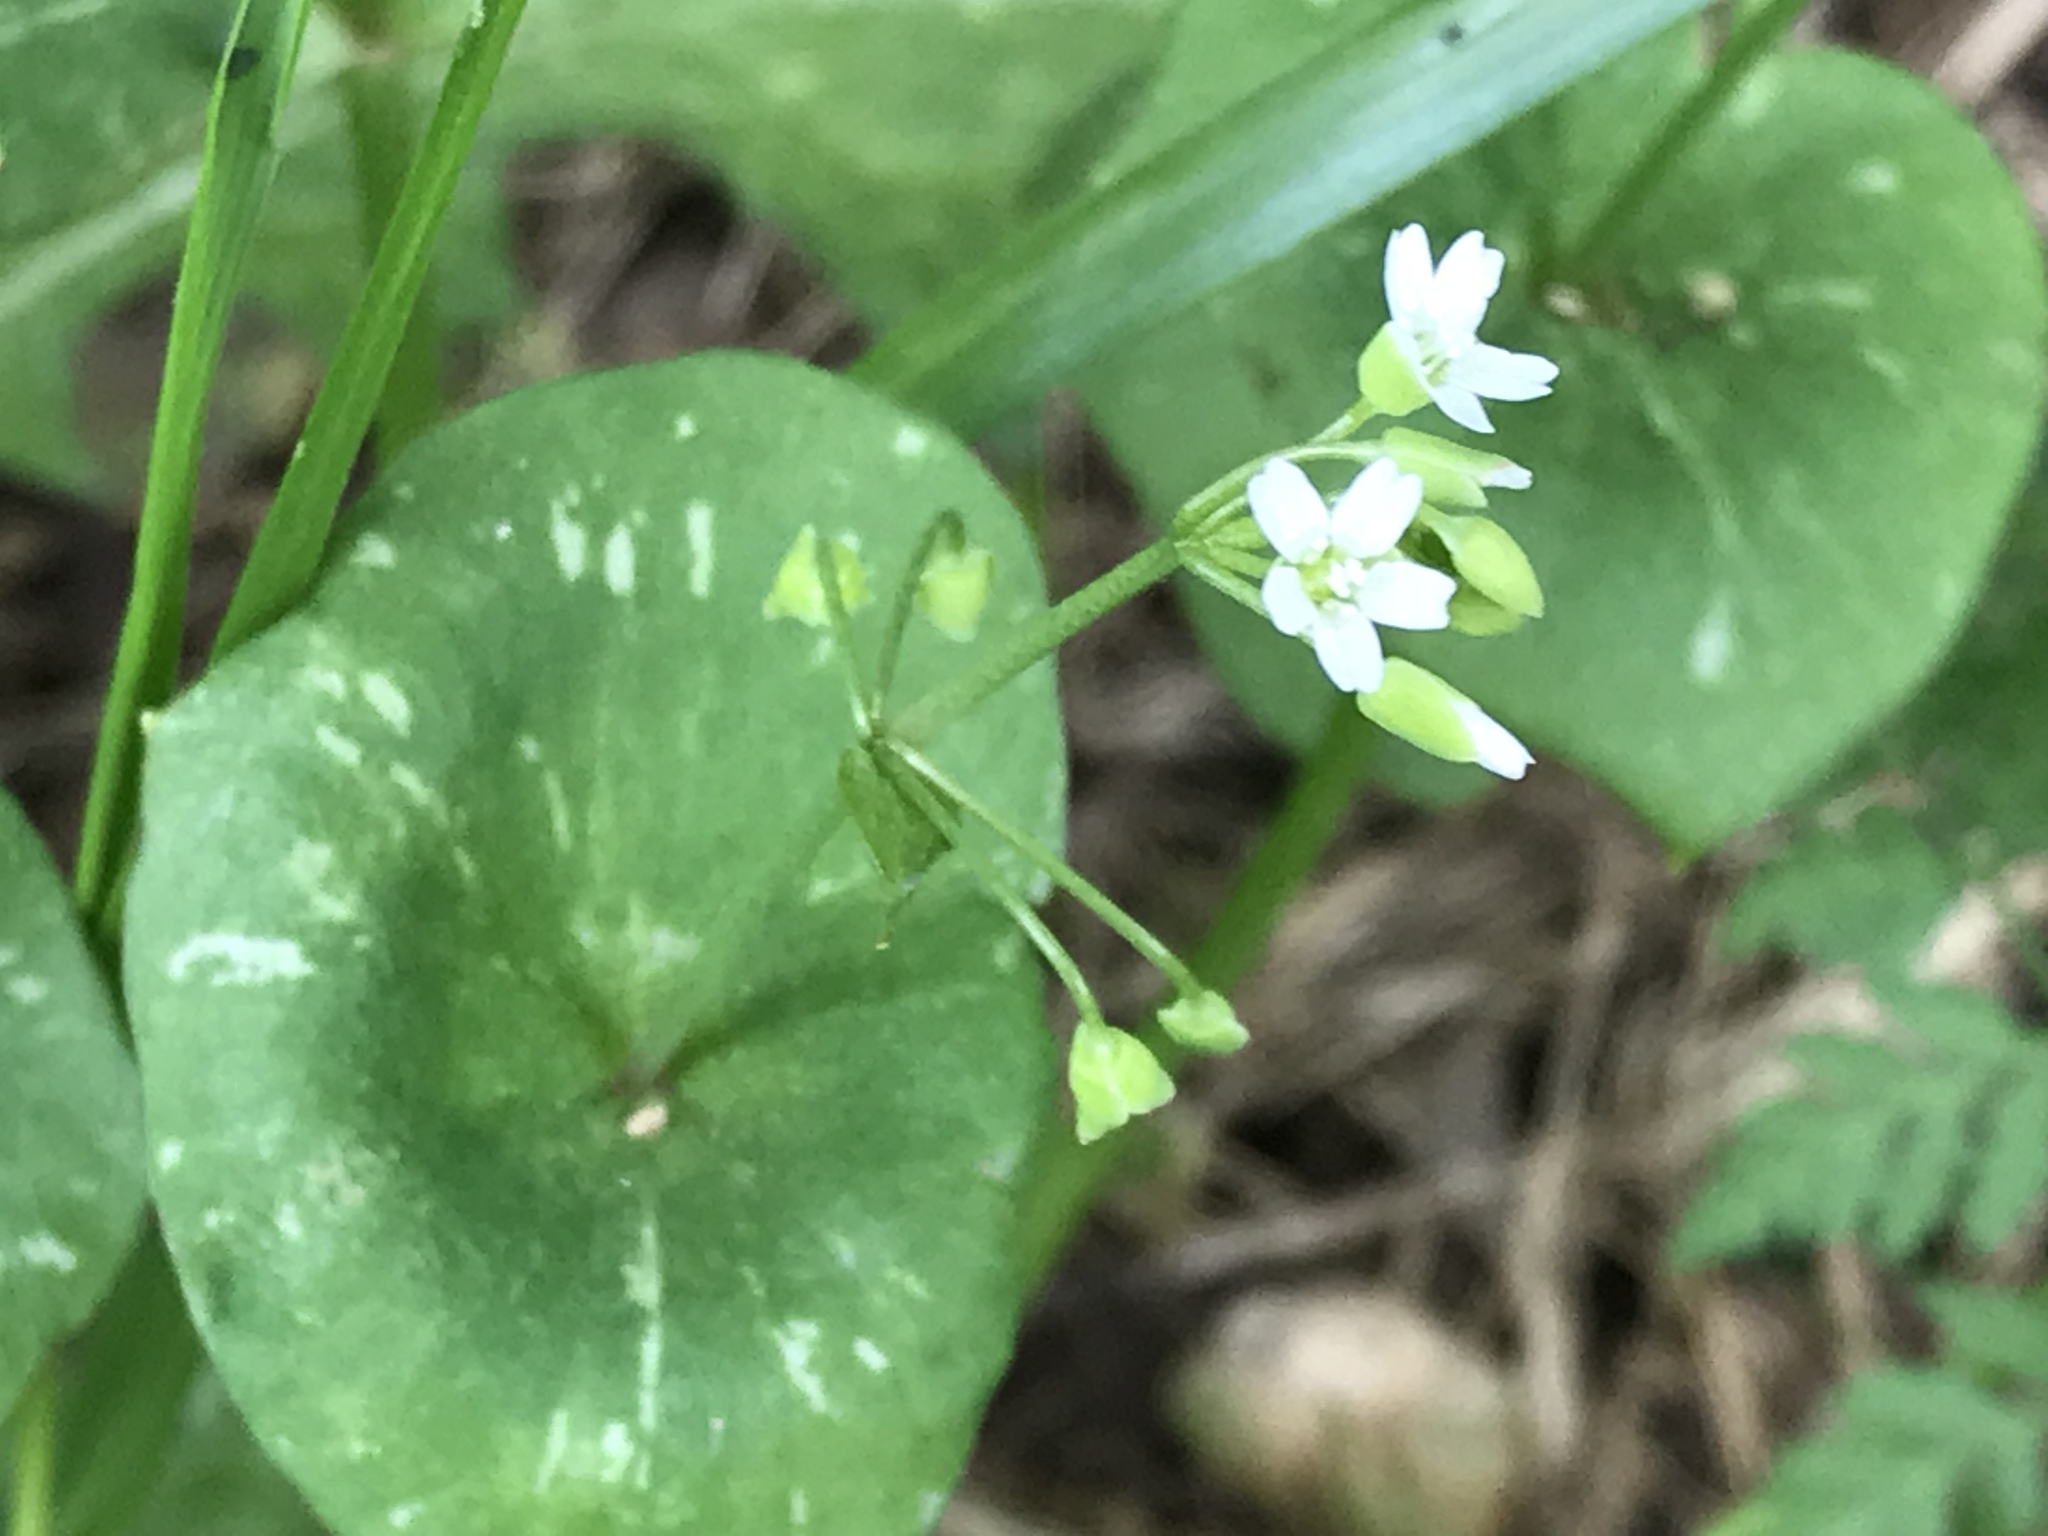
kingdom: Plantae
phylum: Tracheophyta
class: Magnoliopsida
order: Caryophyllales
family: Montiaceae
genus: Claytonia
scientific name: Claytonia perfoliata
